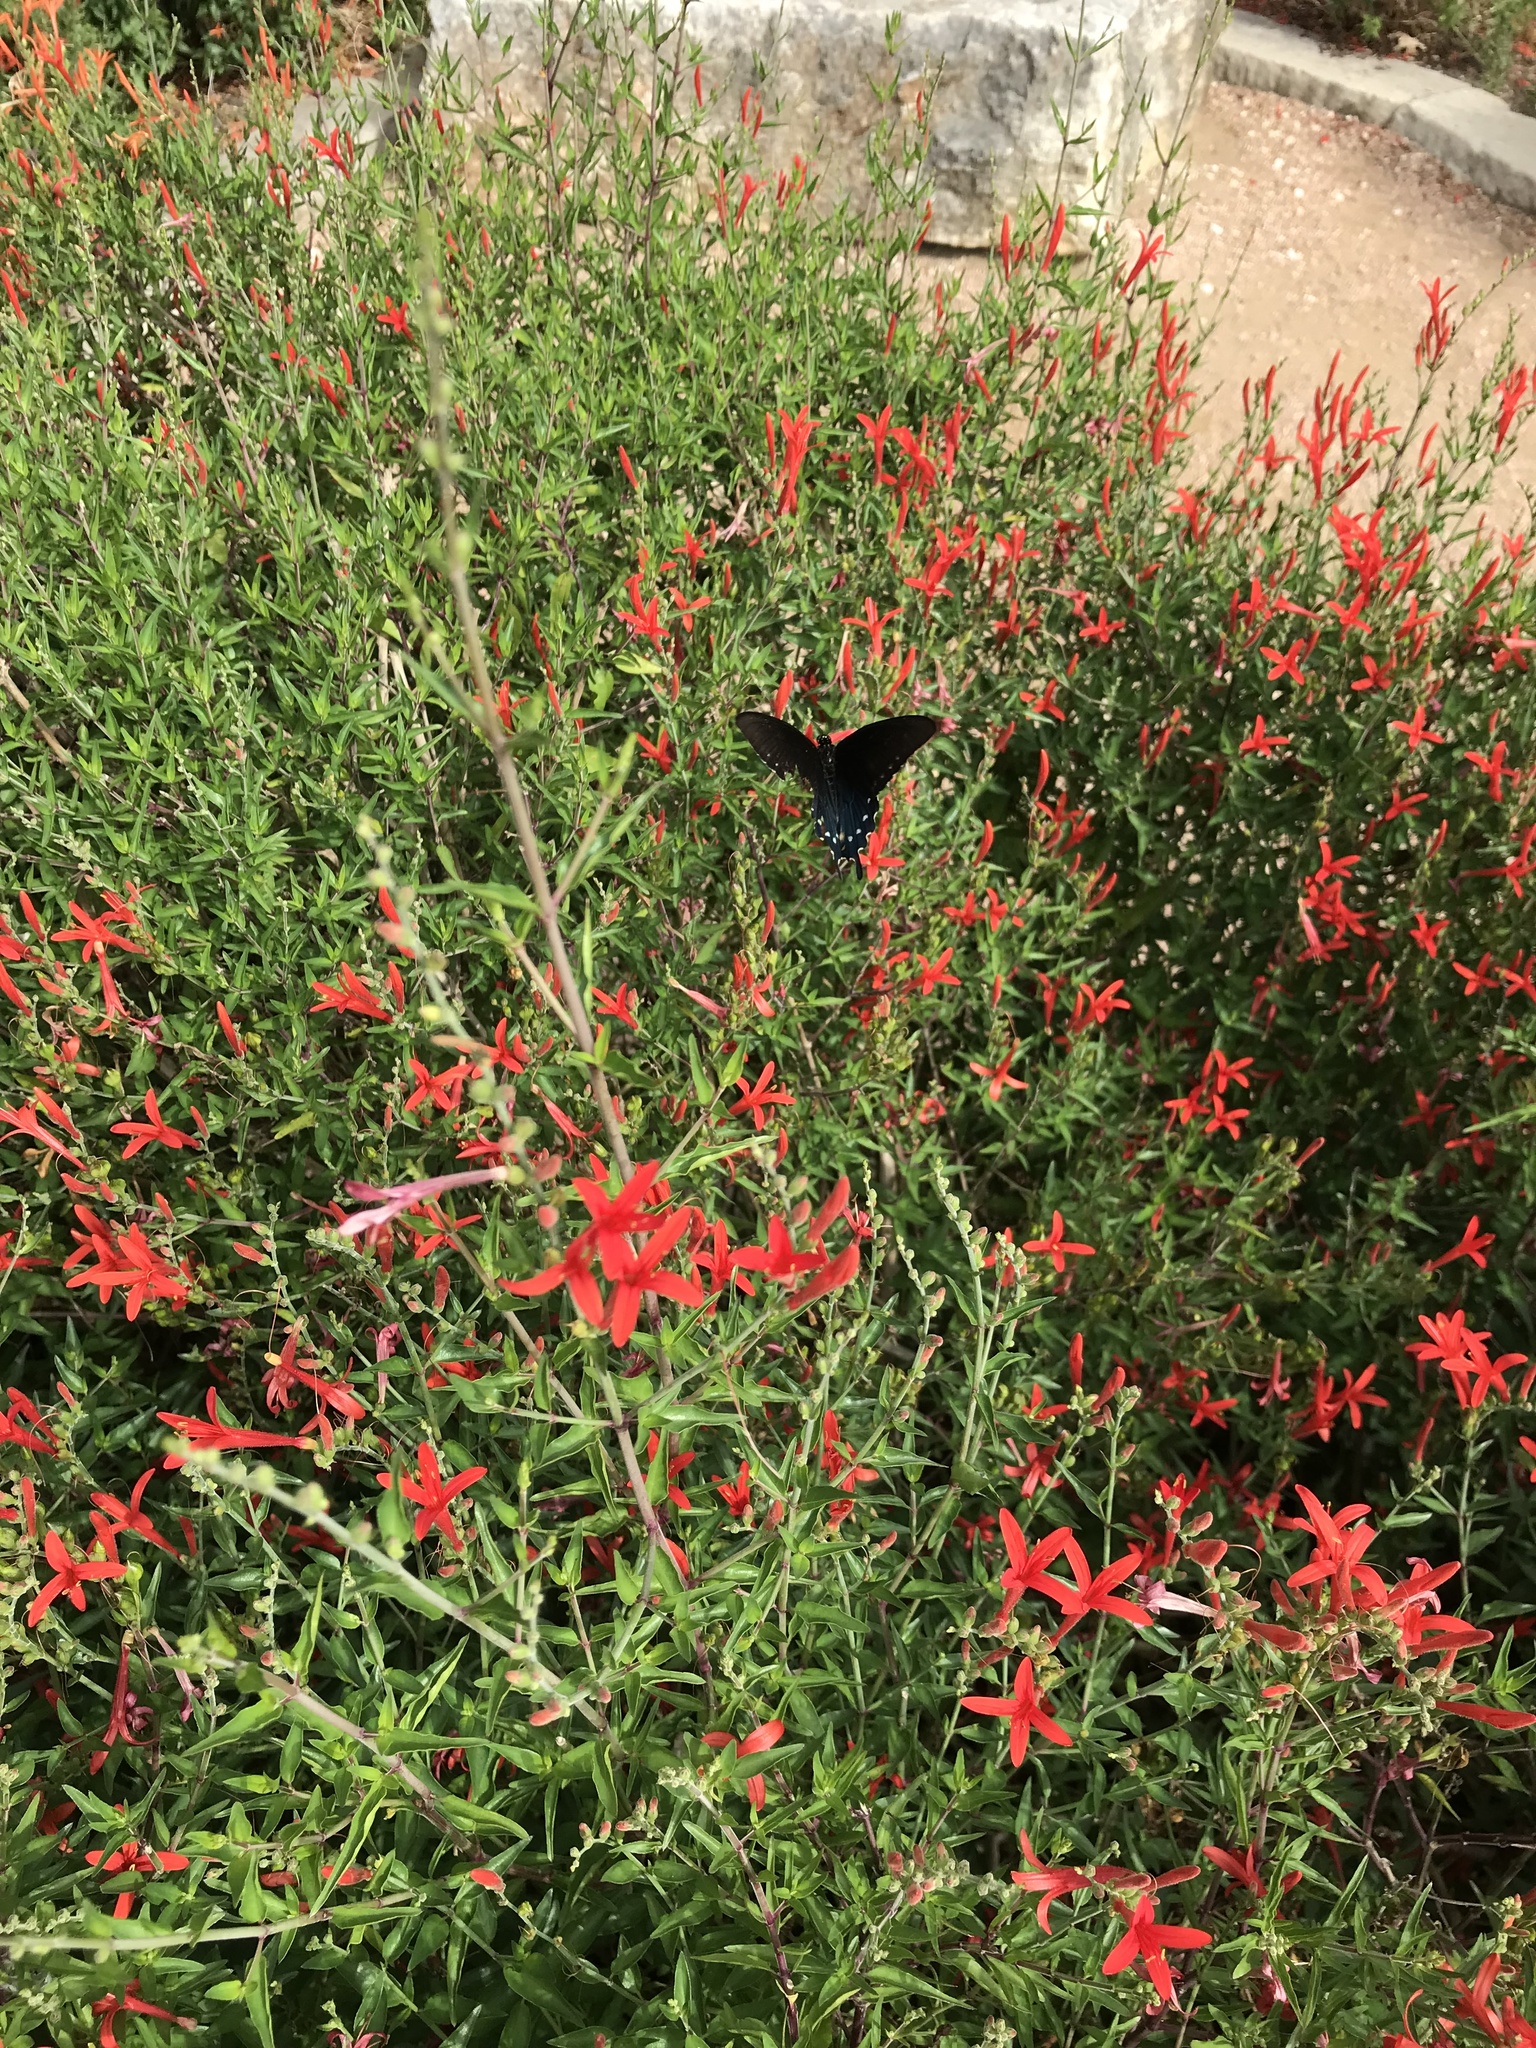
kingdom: Animalia
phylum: Arthropoda
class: Insecta
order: Lepidoptera
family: Papilionidae
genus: Battus
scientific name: Battus philenor
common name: Pipevine swallowtail
